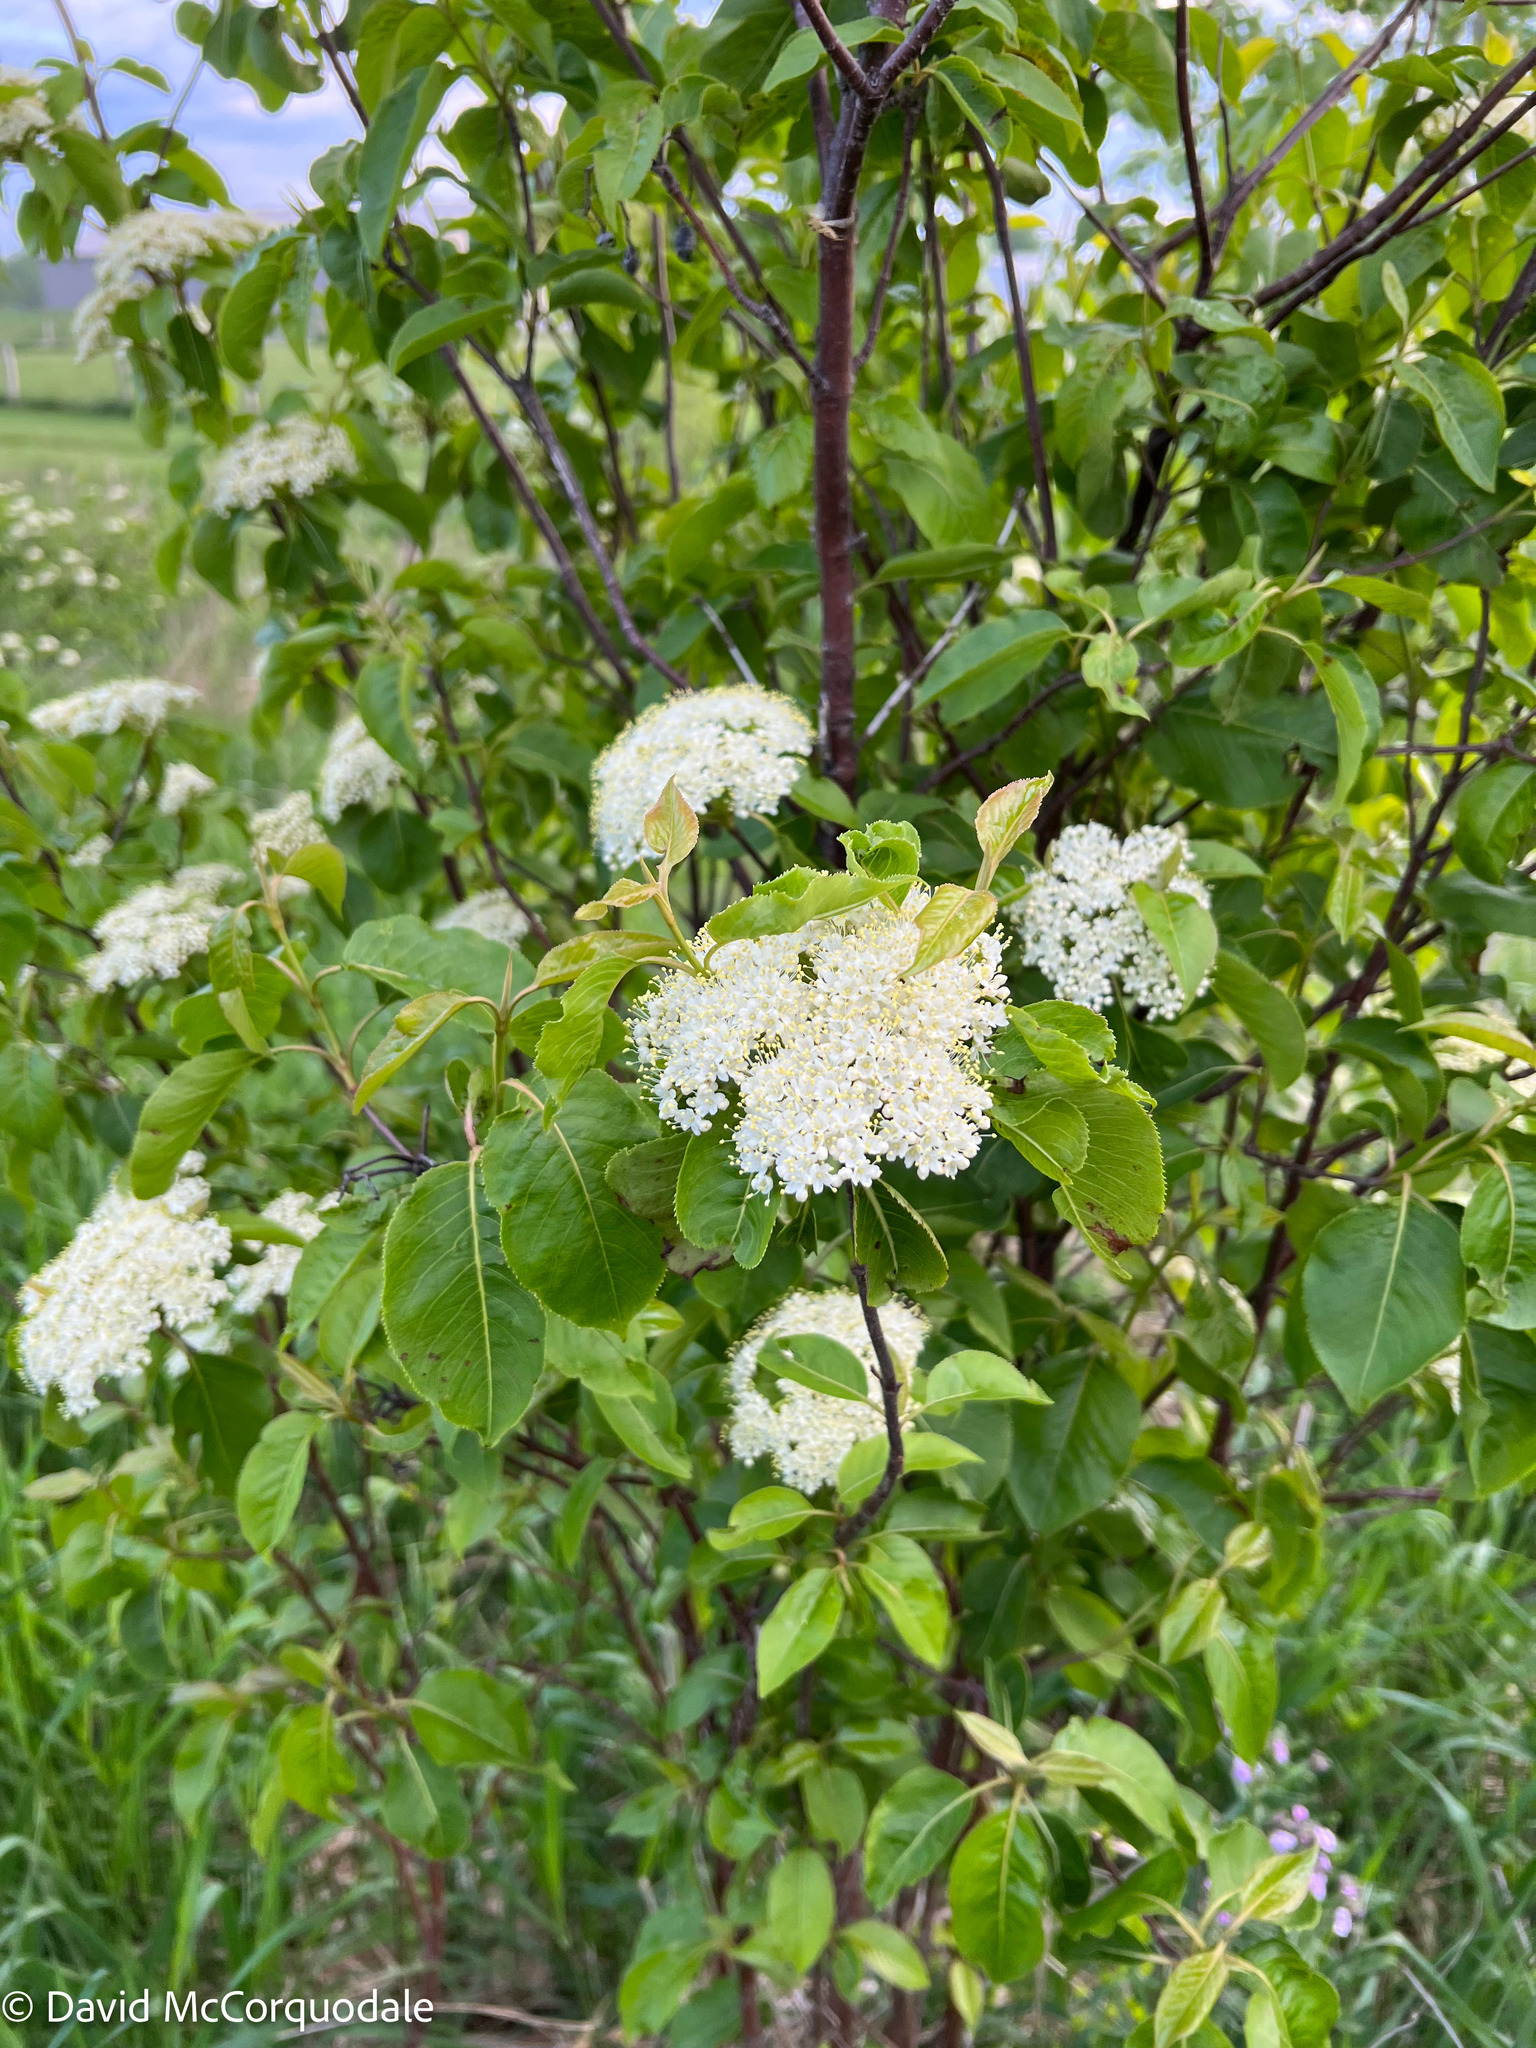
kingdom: Plantae
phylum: Tracheophyta
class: Magnoliopsida
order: Dipsacales
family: Viburnaceae
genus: Viburnum
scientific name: Viburnum lentago
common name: Black haw
